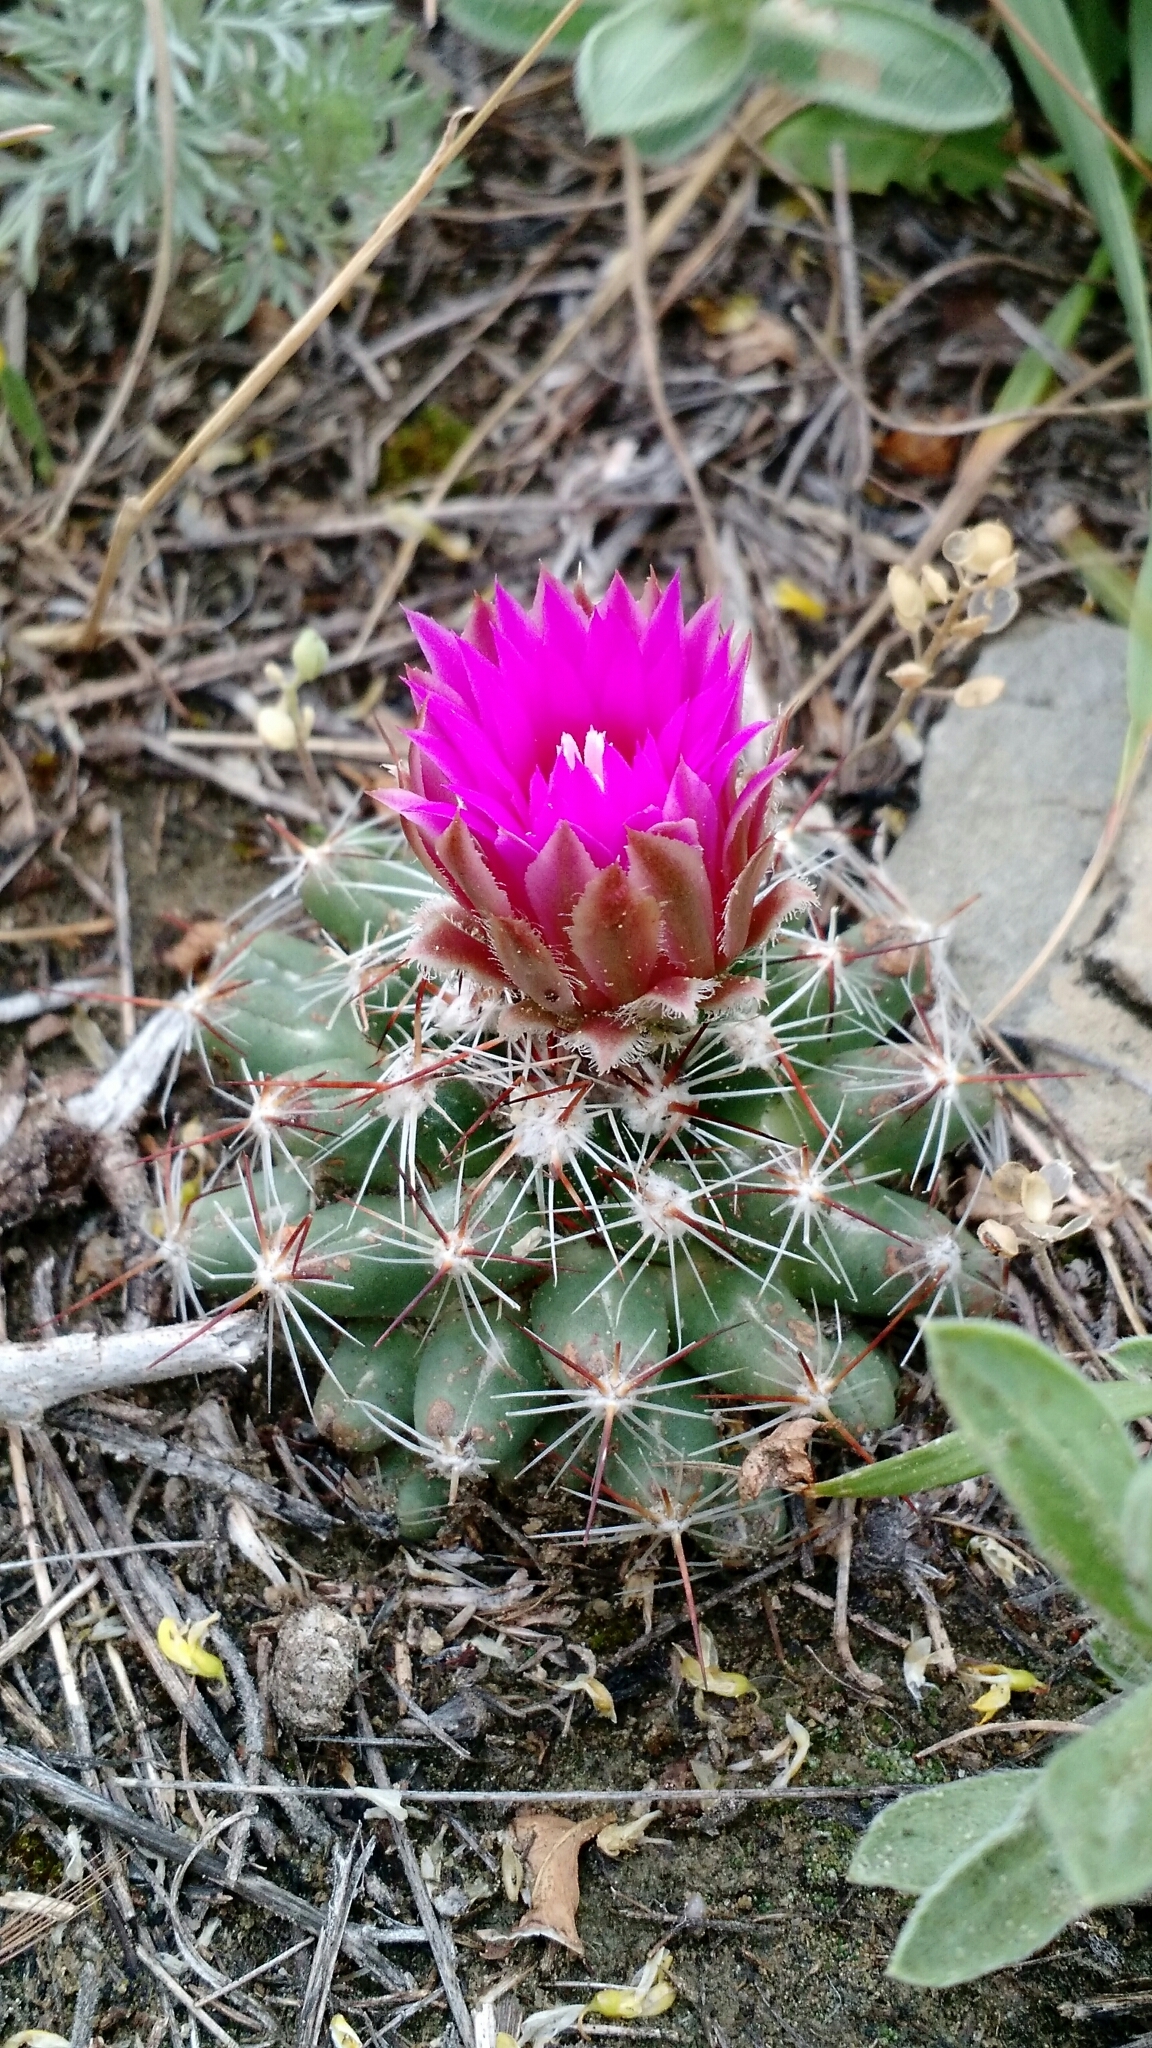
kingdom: Plantae
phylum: Tracheophyta
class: Magnoliopsida
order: Caryophyllales
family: Cactaceae
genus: Pelecyphora
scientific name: Pelecyphora vivipara
